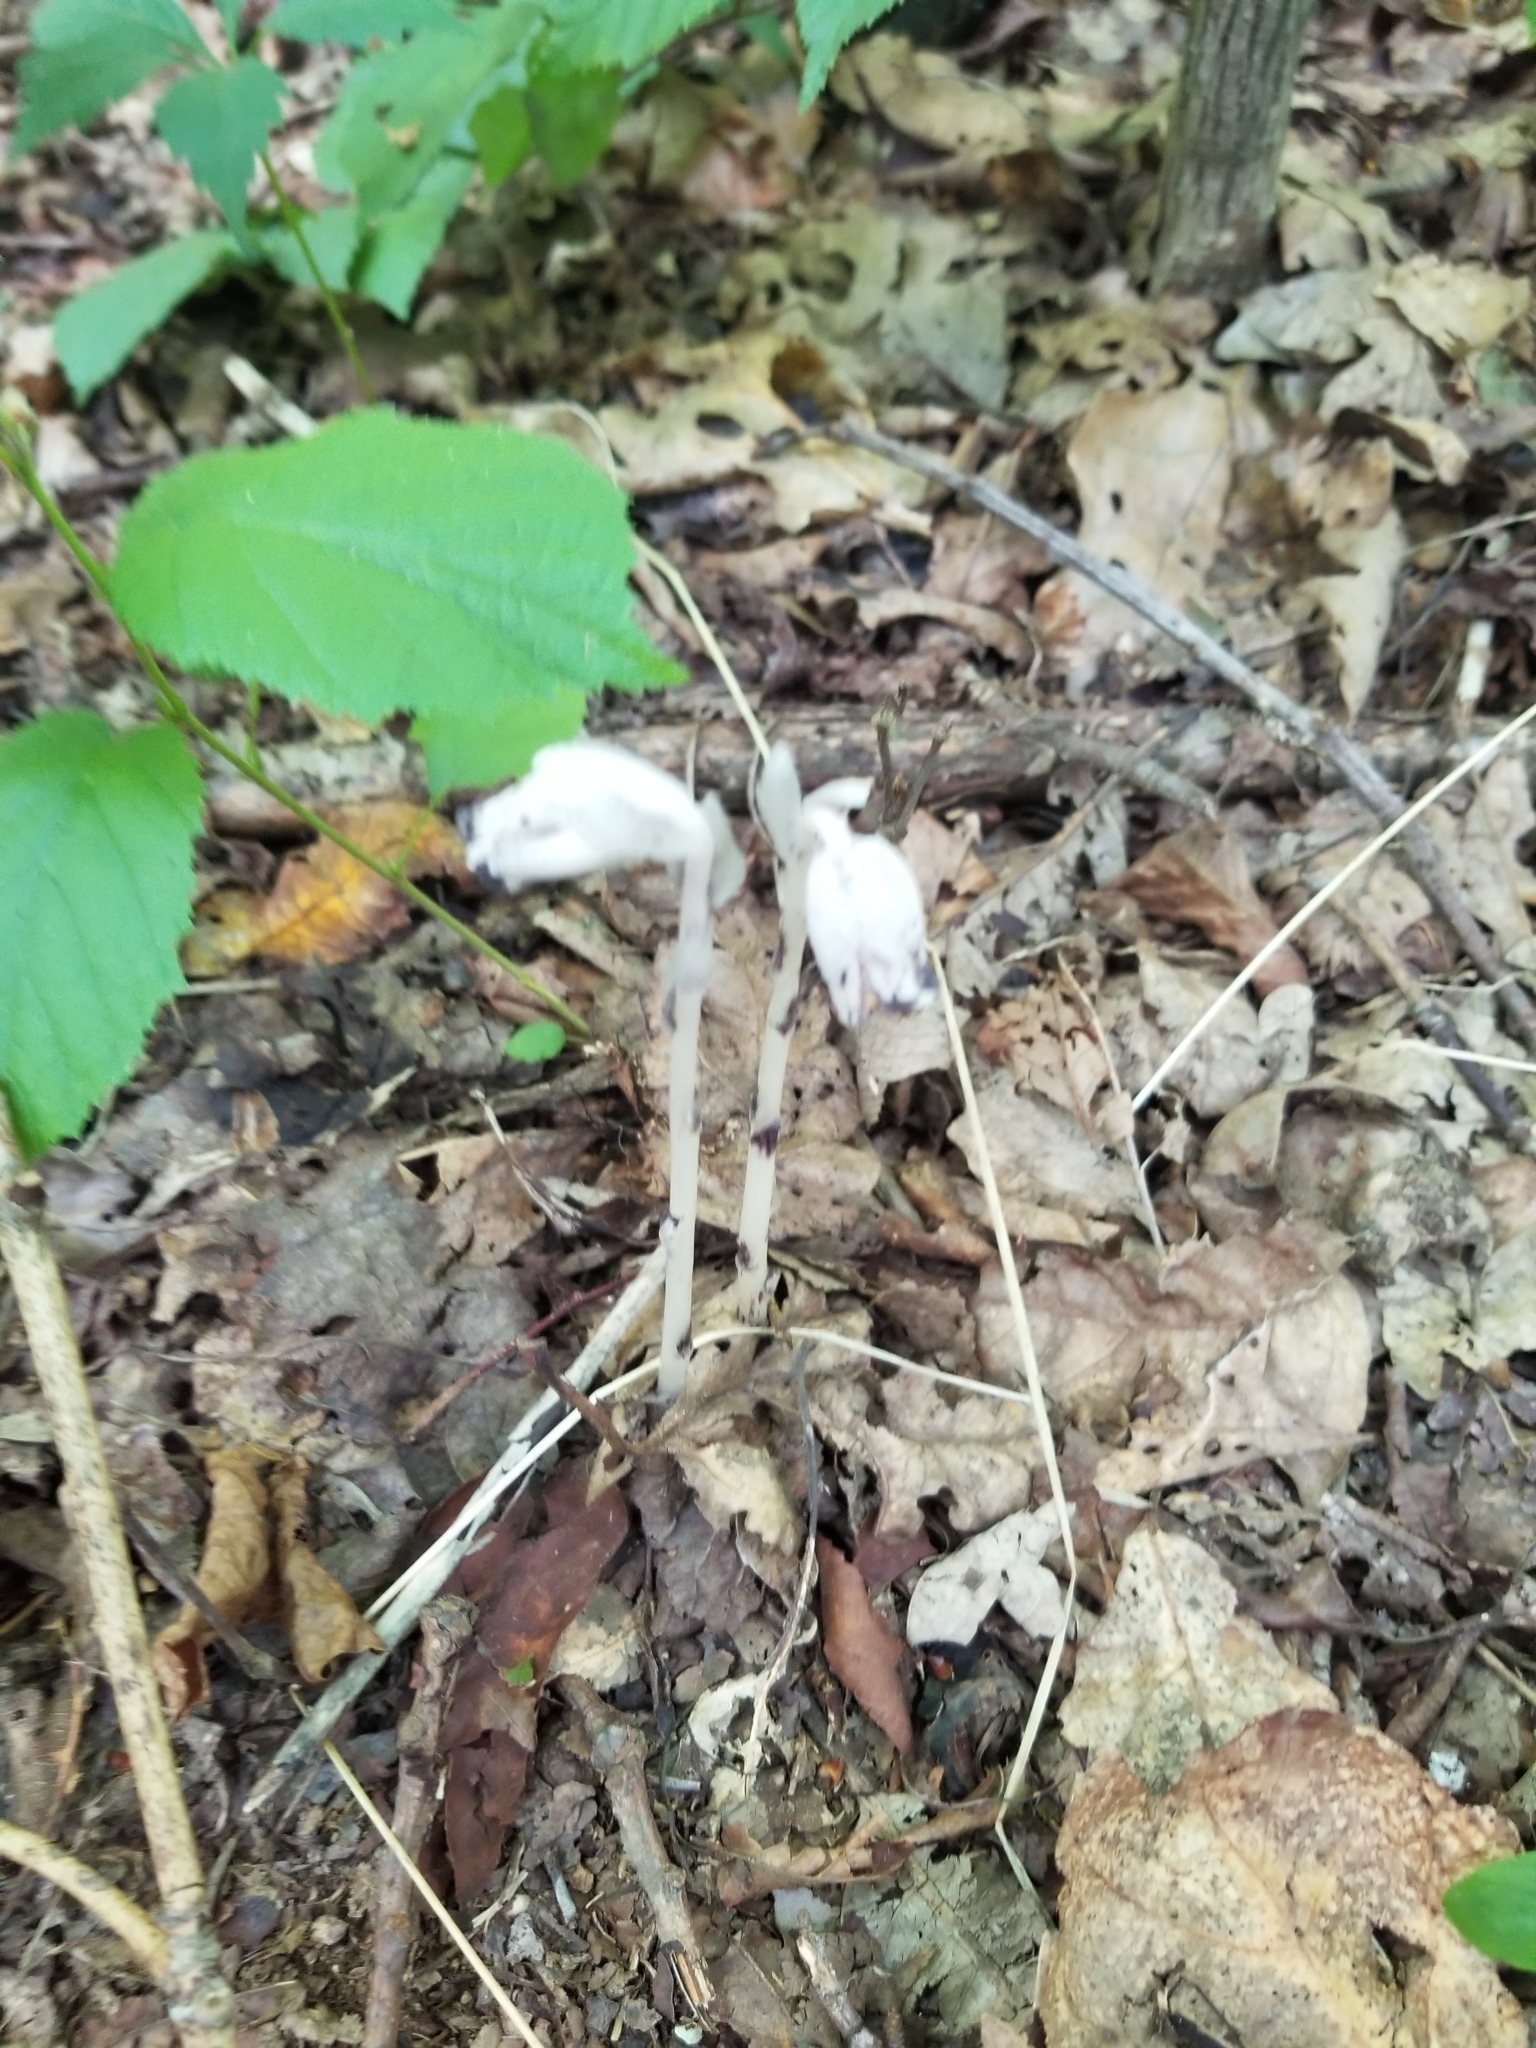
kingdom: Plantae
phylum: Tracheophyta
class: Magnoliopsida
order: Ericales
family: Ericaceae
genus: Monotropa
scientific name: Monotropa uniflora
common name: Convulsion root
